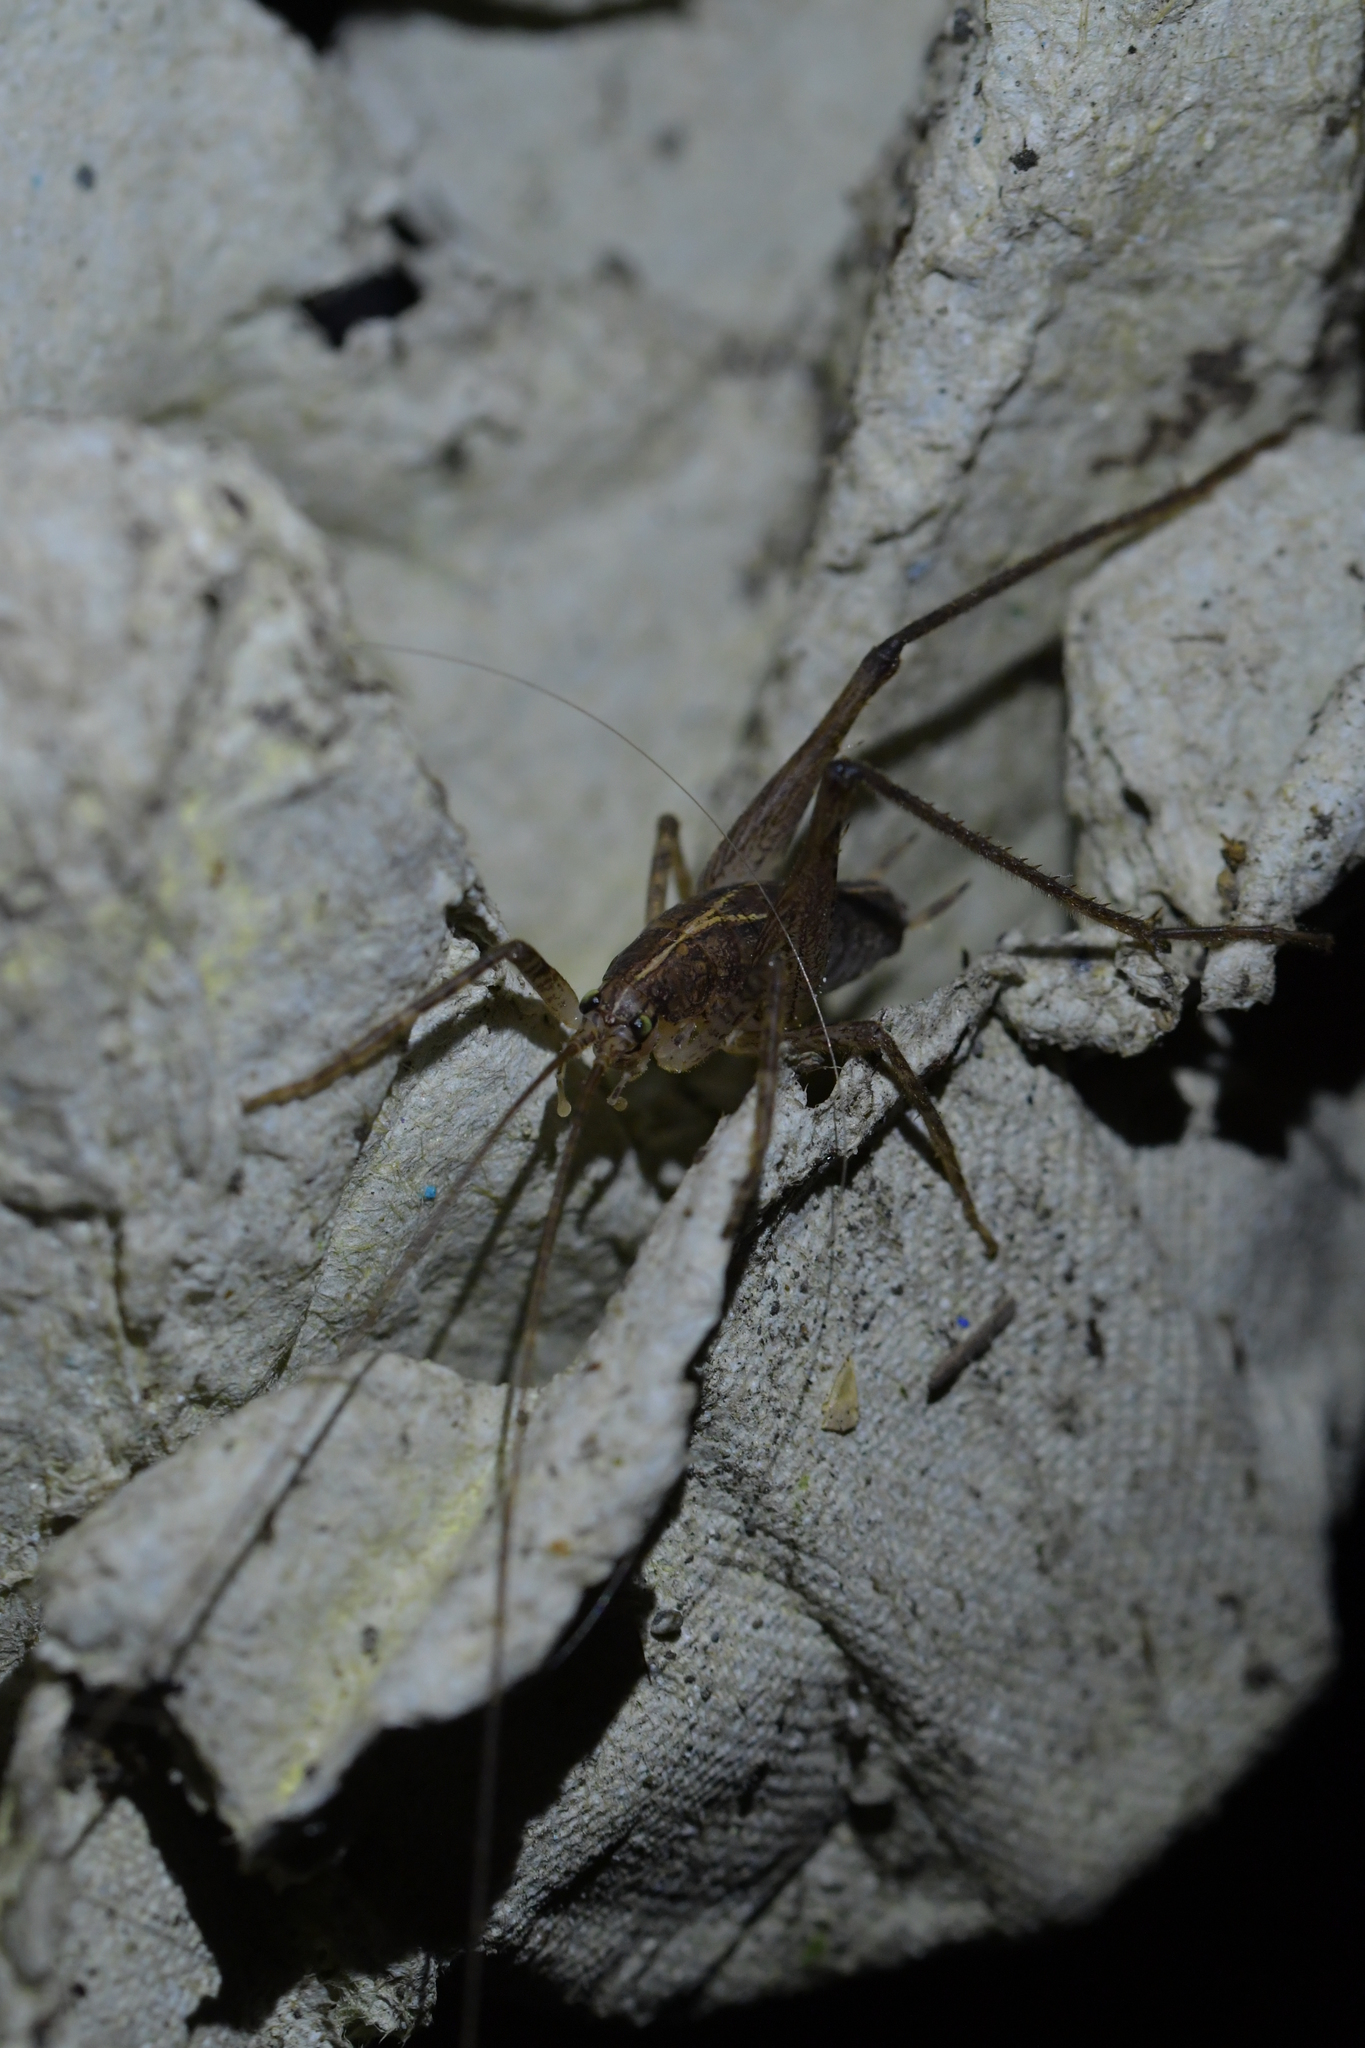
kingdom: Animalia
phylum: Arthropoda
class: Insecta
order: Orthoptera
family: Rhaphidophoridae
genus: Isoplectron
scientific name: Isoplectron armatum
